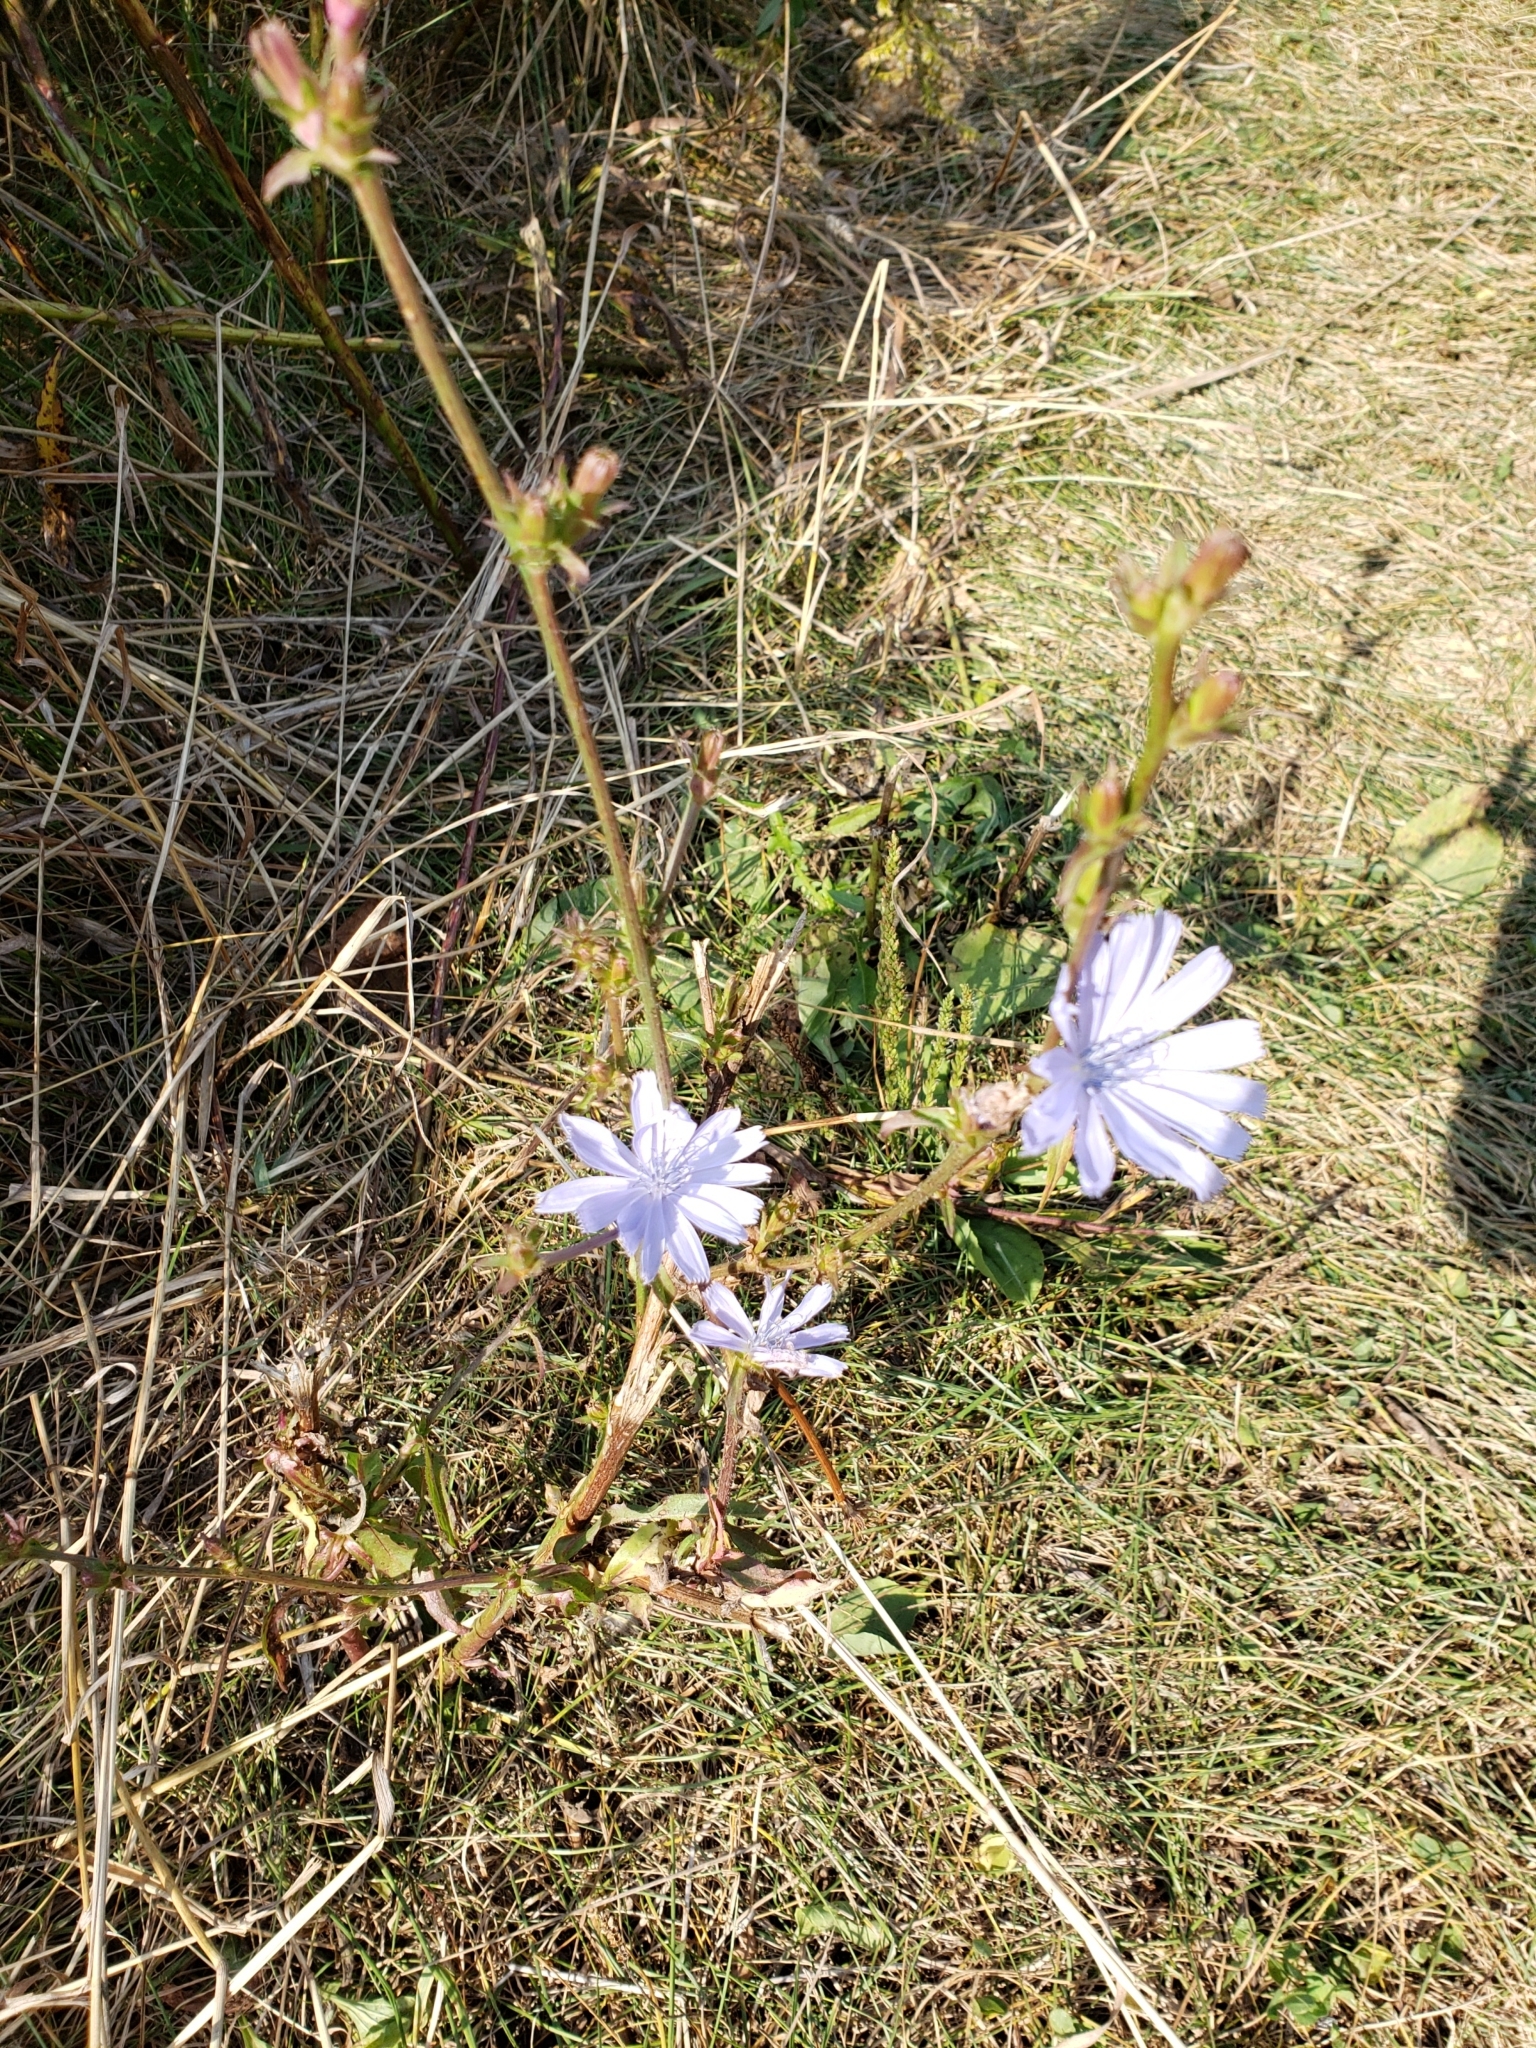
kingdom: Plantae
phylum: Tracheophyta
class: Magnoliopsida
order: Asterales
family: Asteraceae
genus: Cichorium
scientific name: Cichorium intybus
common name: Chicory
